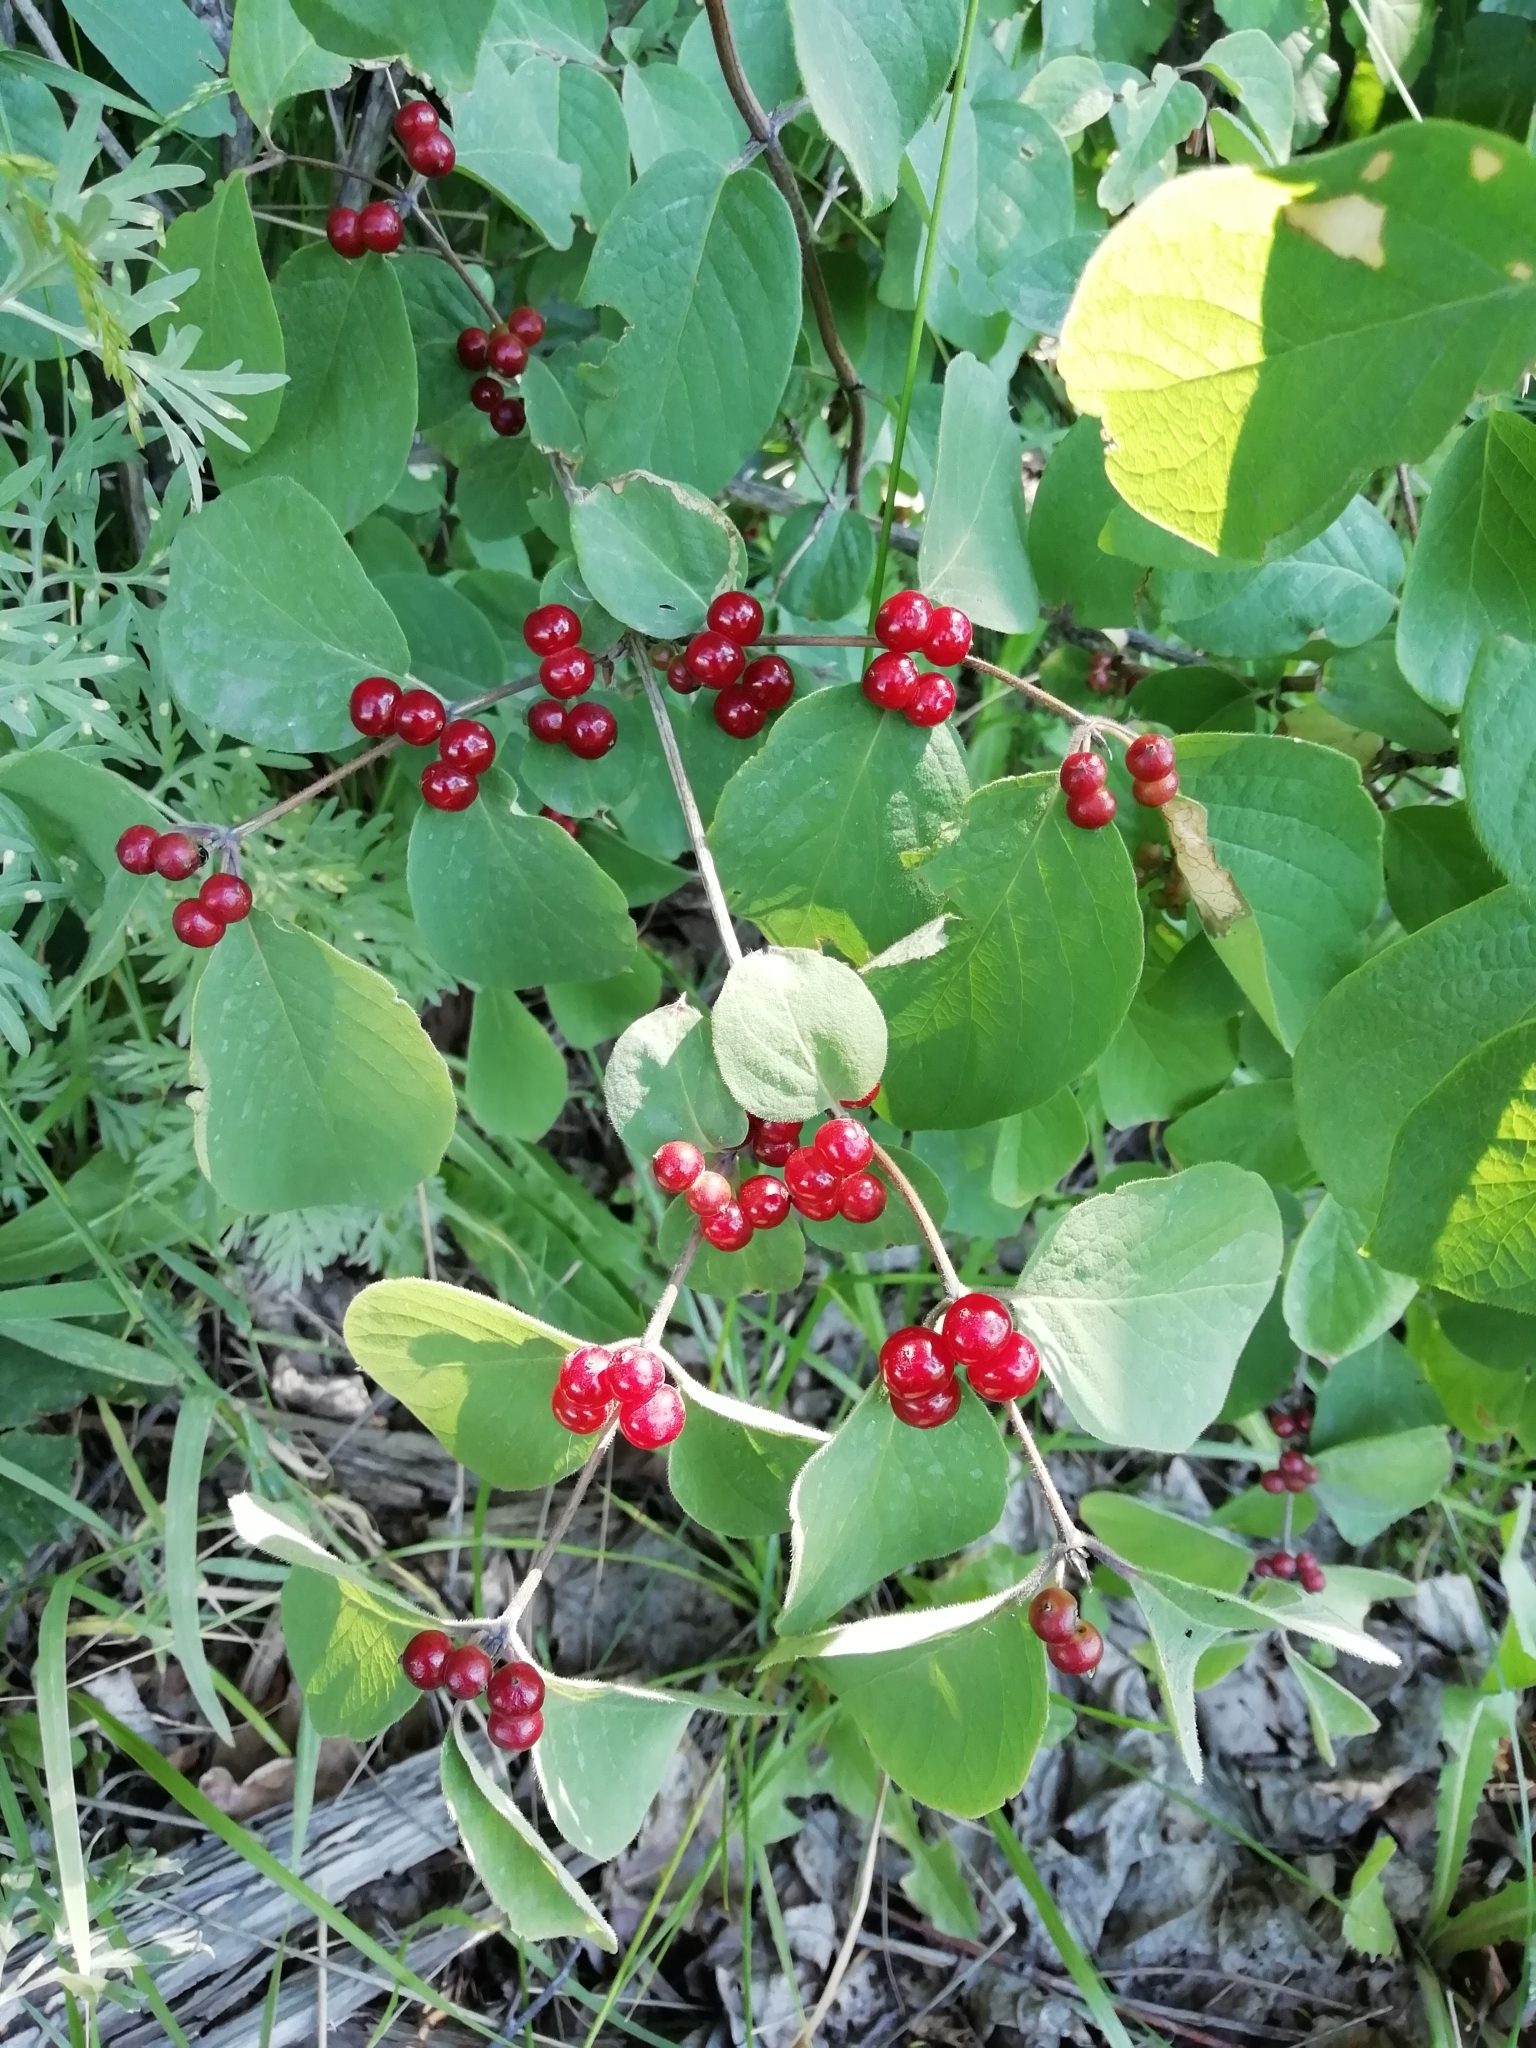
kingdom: Plantae
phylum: Tracheophyta
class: Magnoliopsida
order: Dipsacales
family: Caprifoliaceae
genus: Lonicera
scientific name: Lonicera xylosteum
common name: Fly honeysuckle
